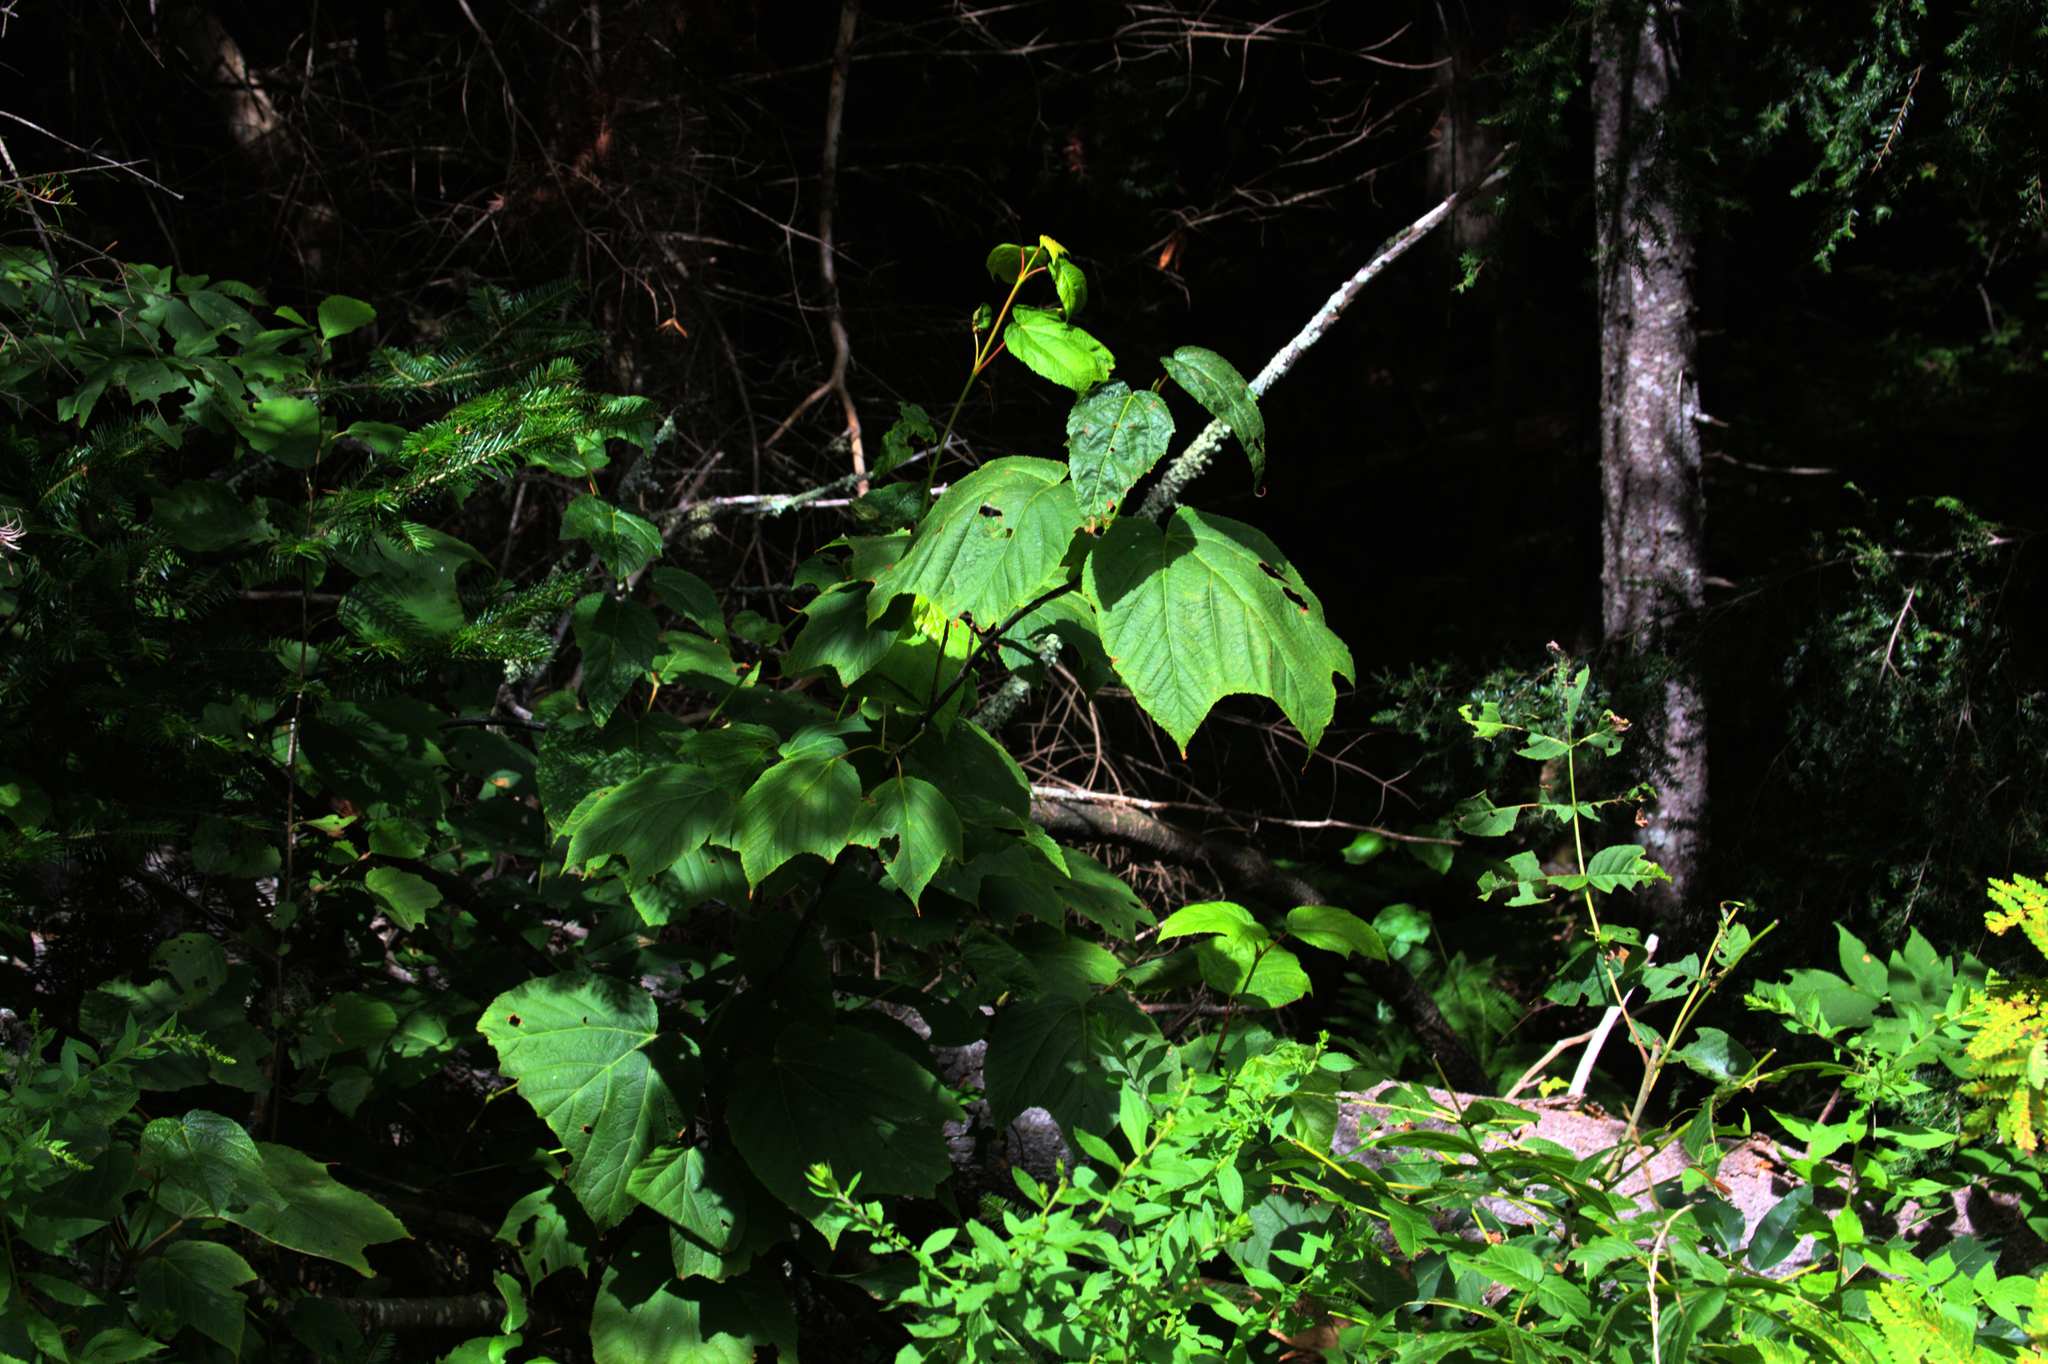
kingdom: Plantae
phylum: Tracheophyta
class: Magnoliopsida
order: Sapindales
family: Sapindaceae
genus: Acer
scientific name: Acer pensylvanicum
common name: Moosewood
